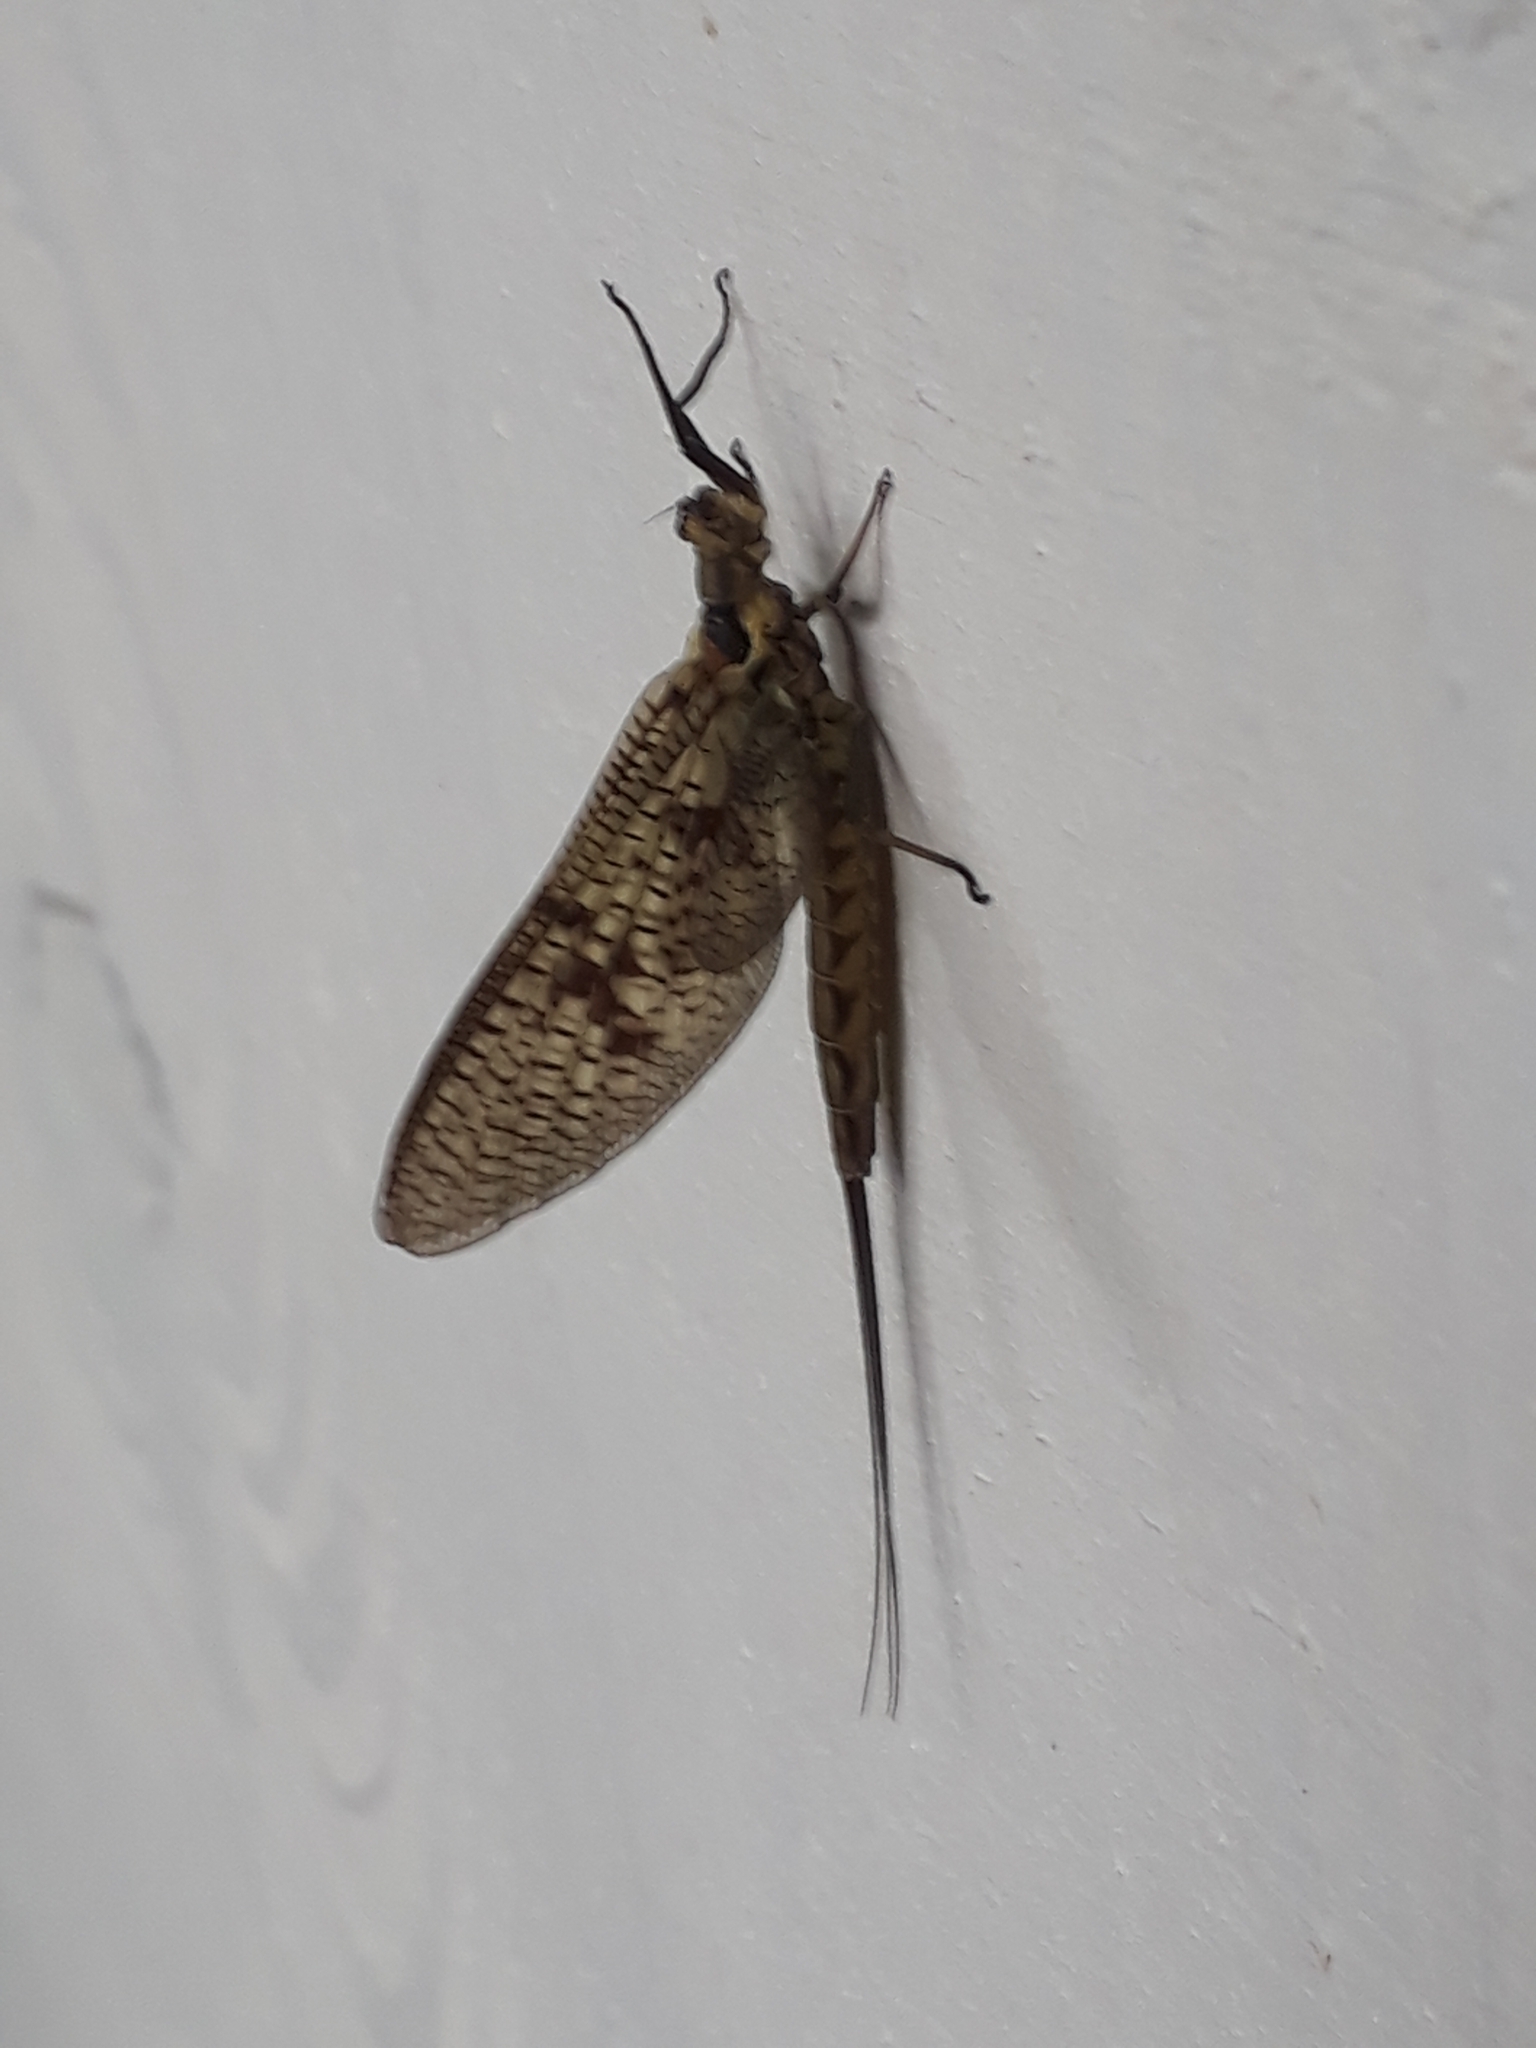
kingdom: Animalia
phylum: Arthropoda
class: Insecta
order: Ephemeroptera
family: Ephemeridae
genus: Ephemera
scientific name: Ephemera vulgata
